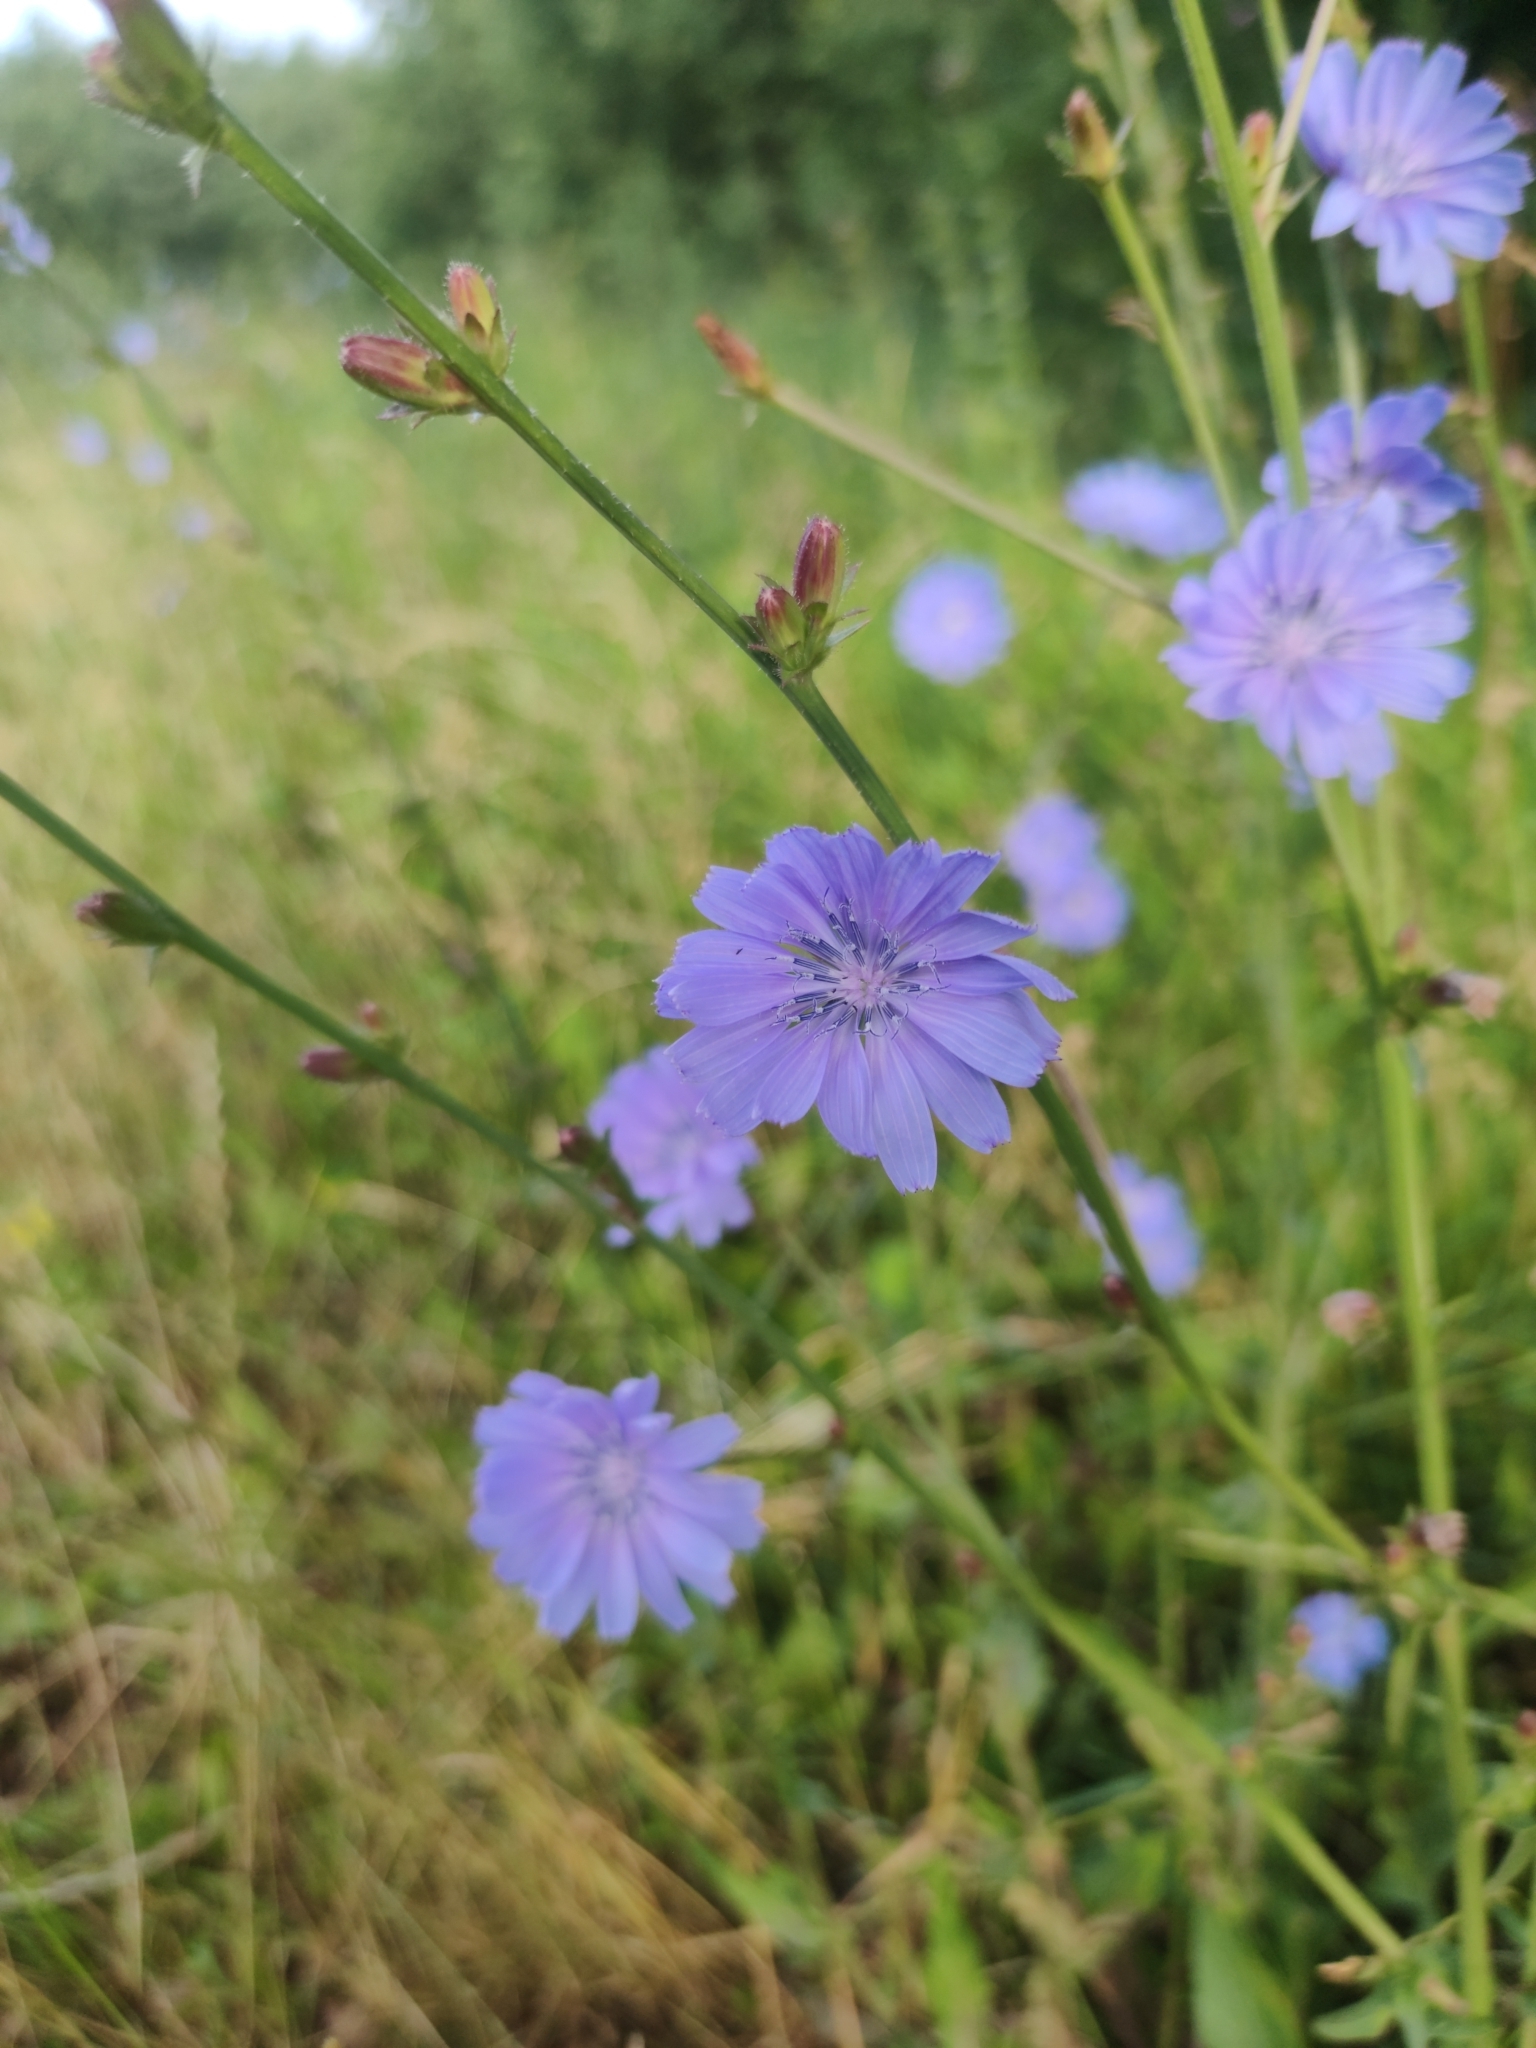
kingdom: Plantae
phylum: Tracheophyta
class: Magnoliopsida
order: Asterales
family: Asteraceae
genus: Cichorium
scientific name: Cichorium intybus
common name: Chicory
